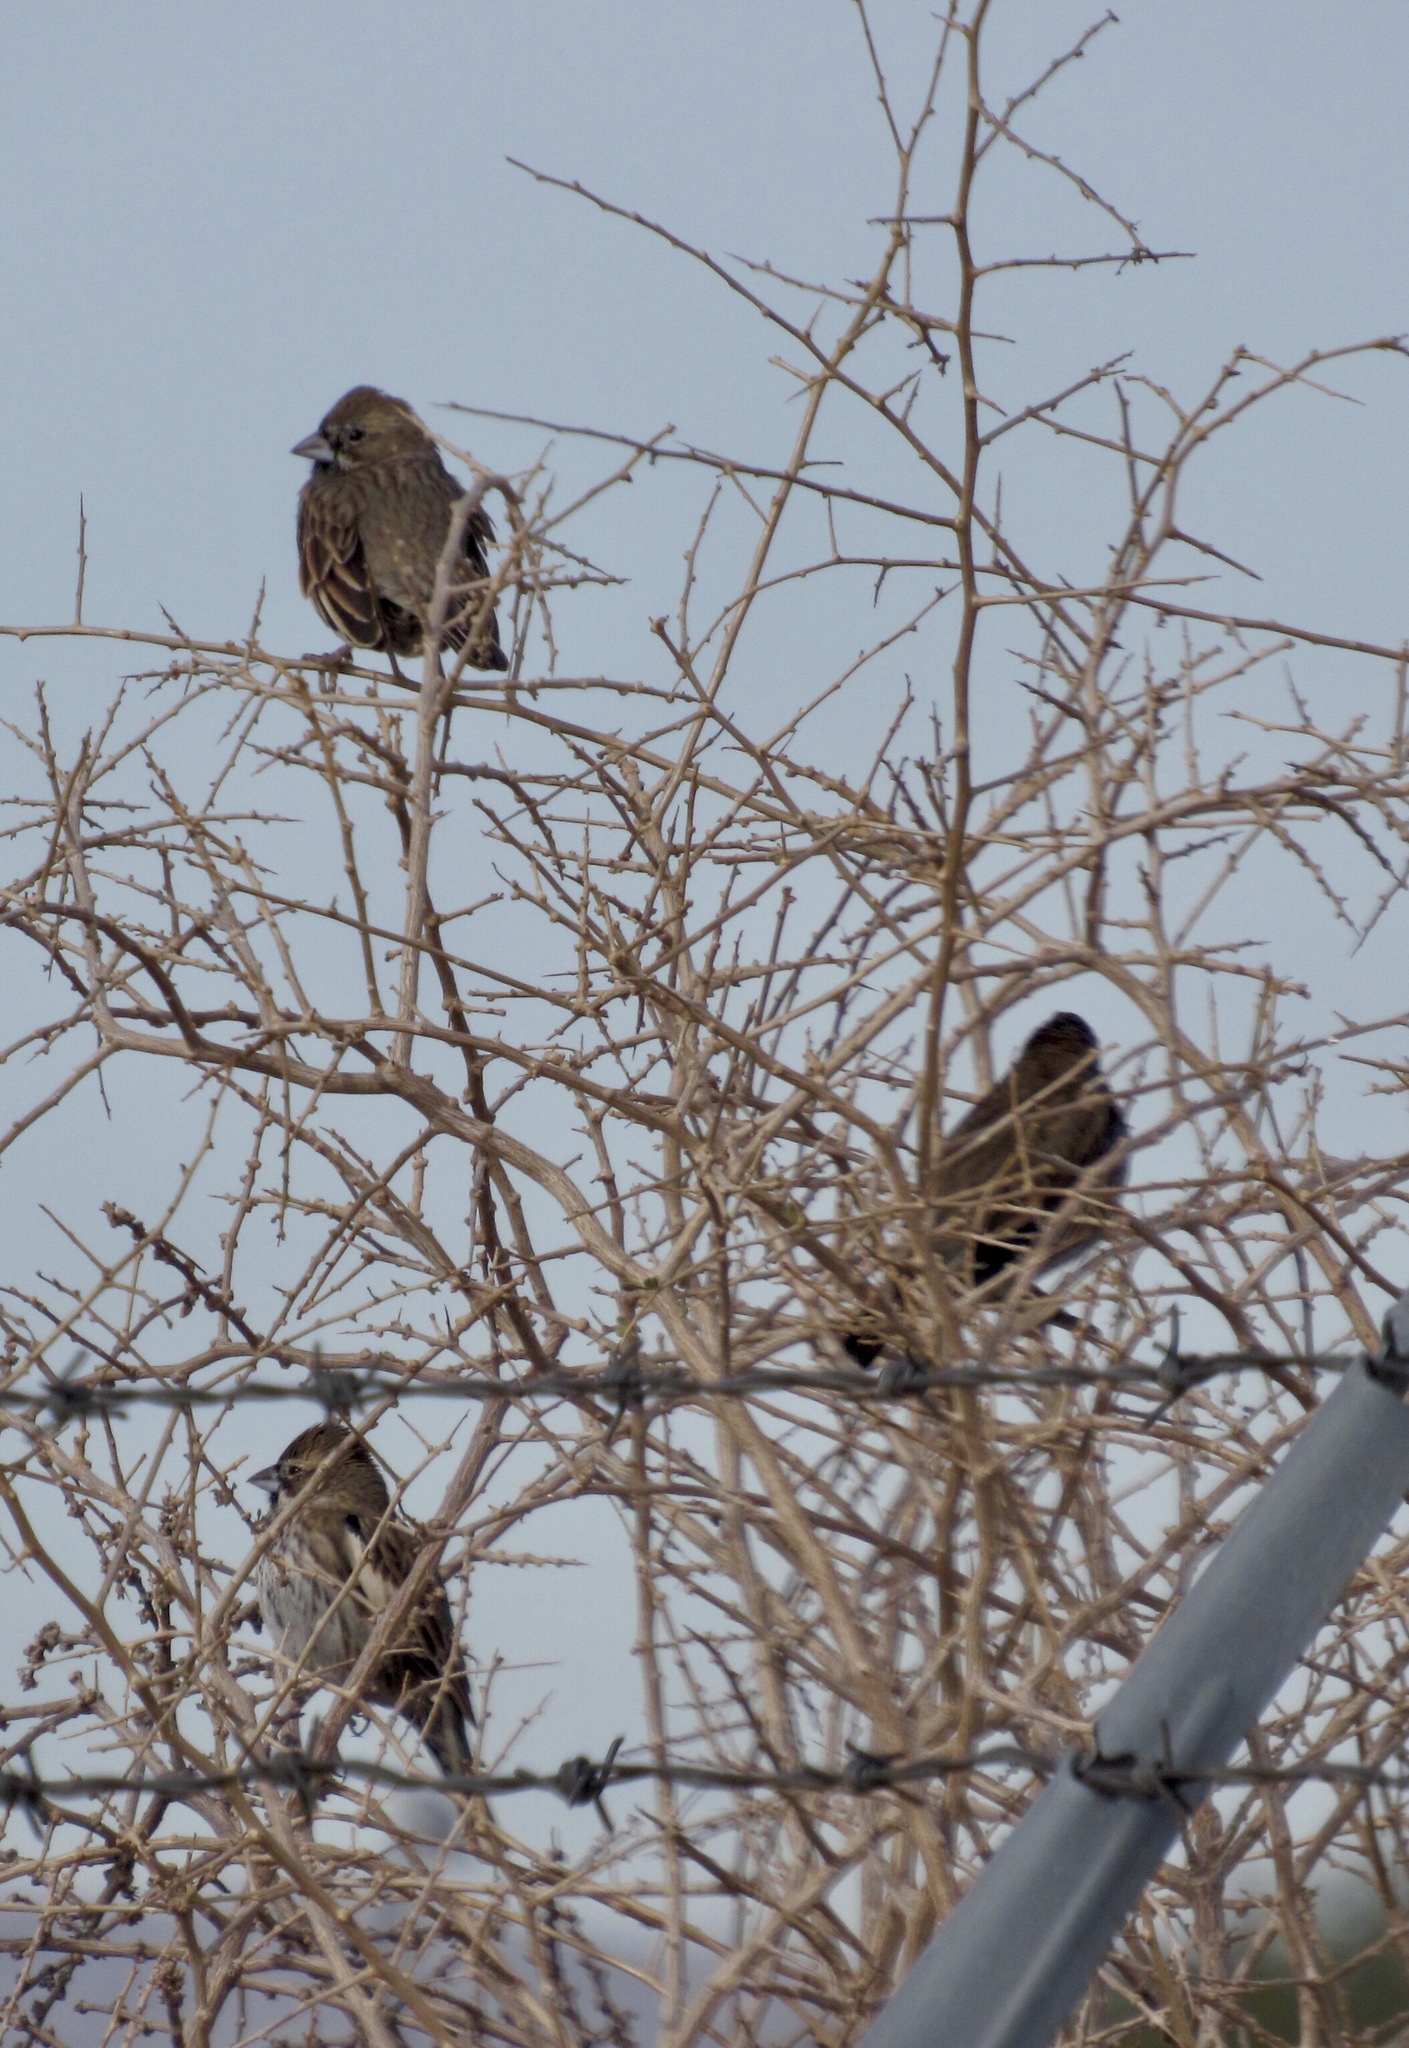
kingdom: Animalia
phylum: Chordata
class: Aves
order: Passeriformes
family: Passerellidae
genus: Calamospiza
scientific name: Calamospiza melanocorys
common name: Lark bunting
